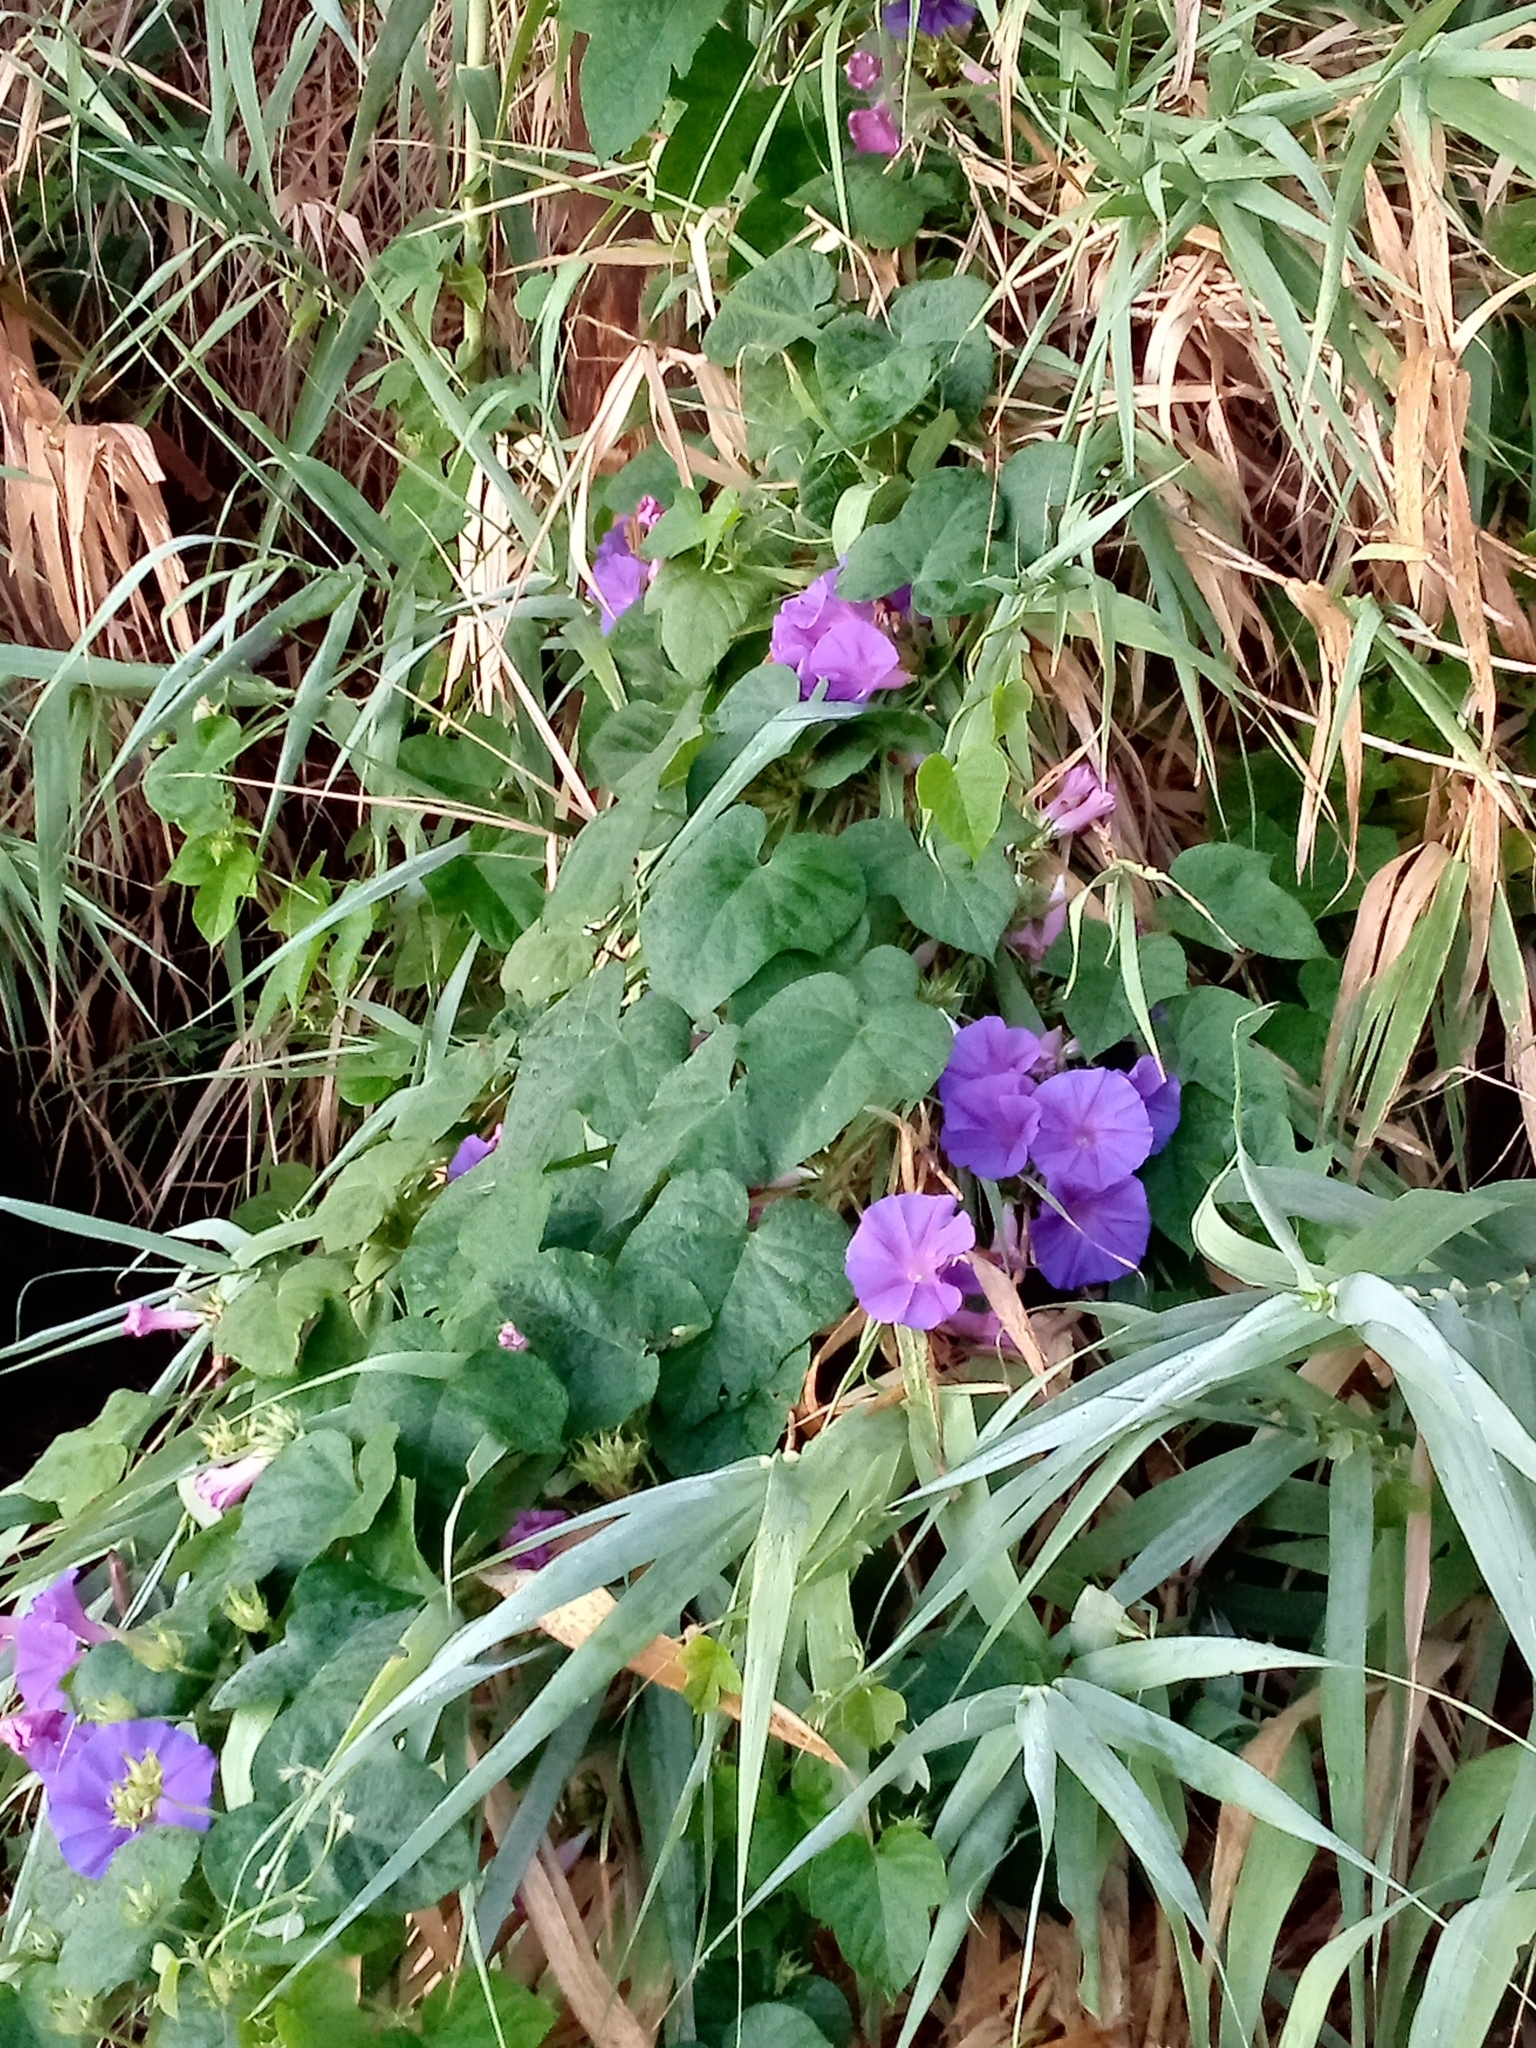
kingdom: Plantae
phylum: Tracheophyta
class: Magnoliopsida
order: Solanales
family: Convolvulaceae
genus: Ipomoea
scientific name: Ipomoea indica
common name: Blue dawnflower
